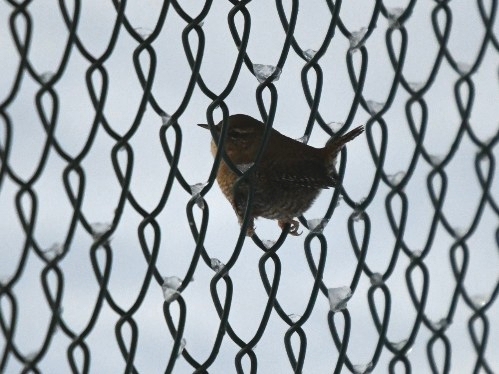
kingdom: Animalia
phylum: Chordata
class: Aves
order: Passeriformes
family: Troglodytidae
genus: Troglodytes
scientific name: Troglodytes troglodytes
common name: Eurasian wren
